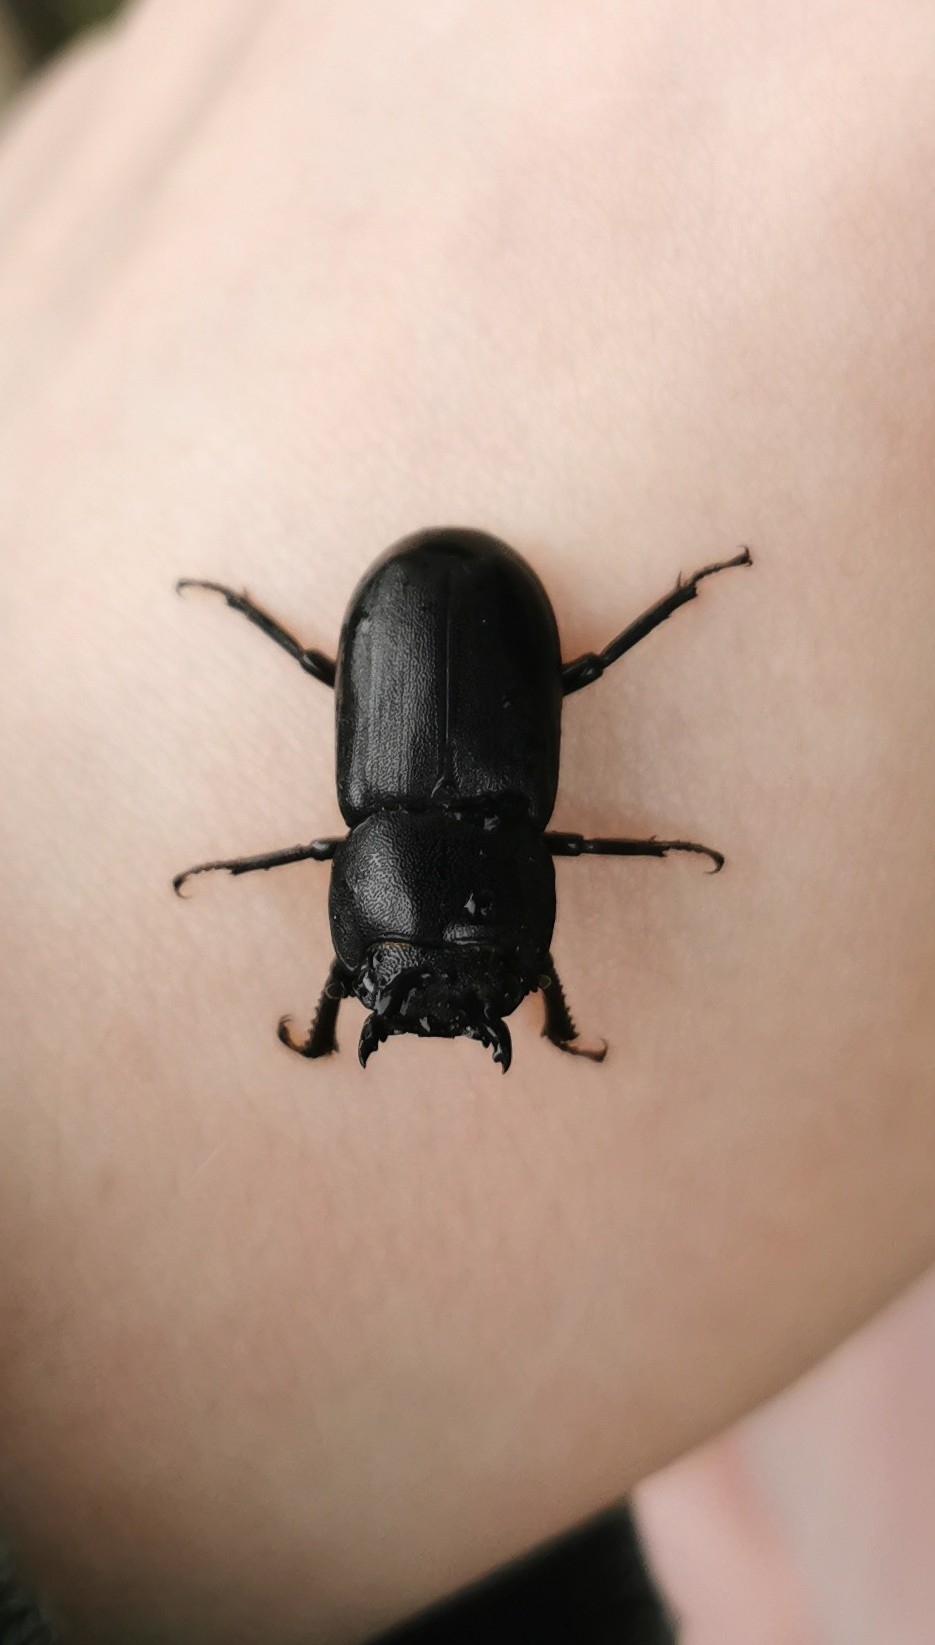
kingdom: Animalia
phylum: Arthropoda
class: Insecta
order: Coleoptera
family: Lucanidae
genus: Dorcus
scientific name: Dorcus parallelipipedus
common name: Lesser stag beetle
